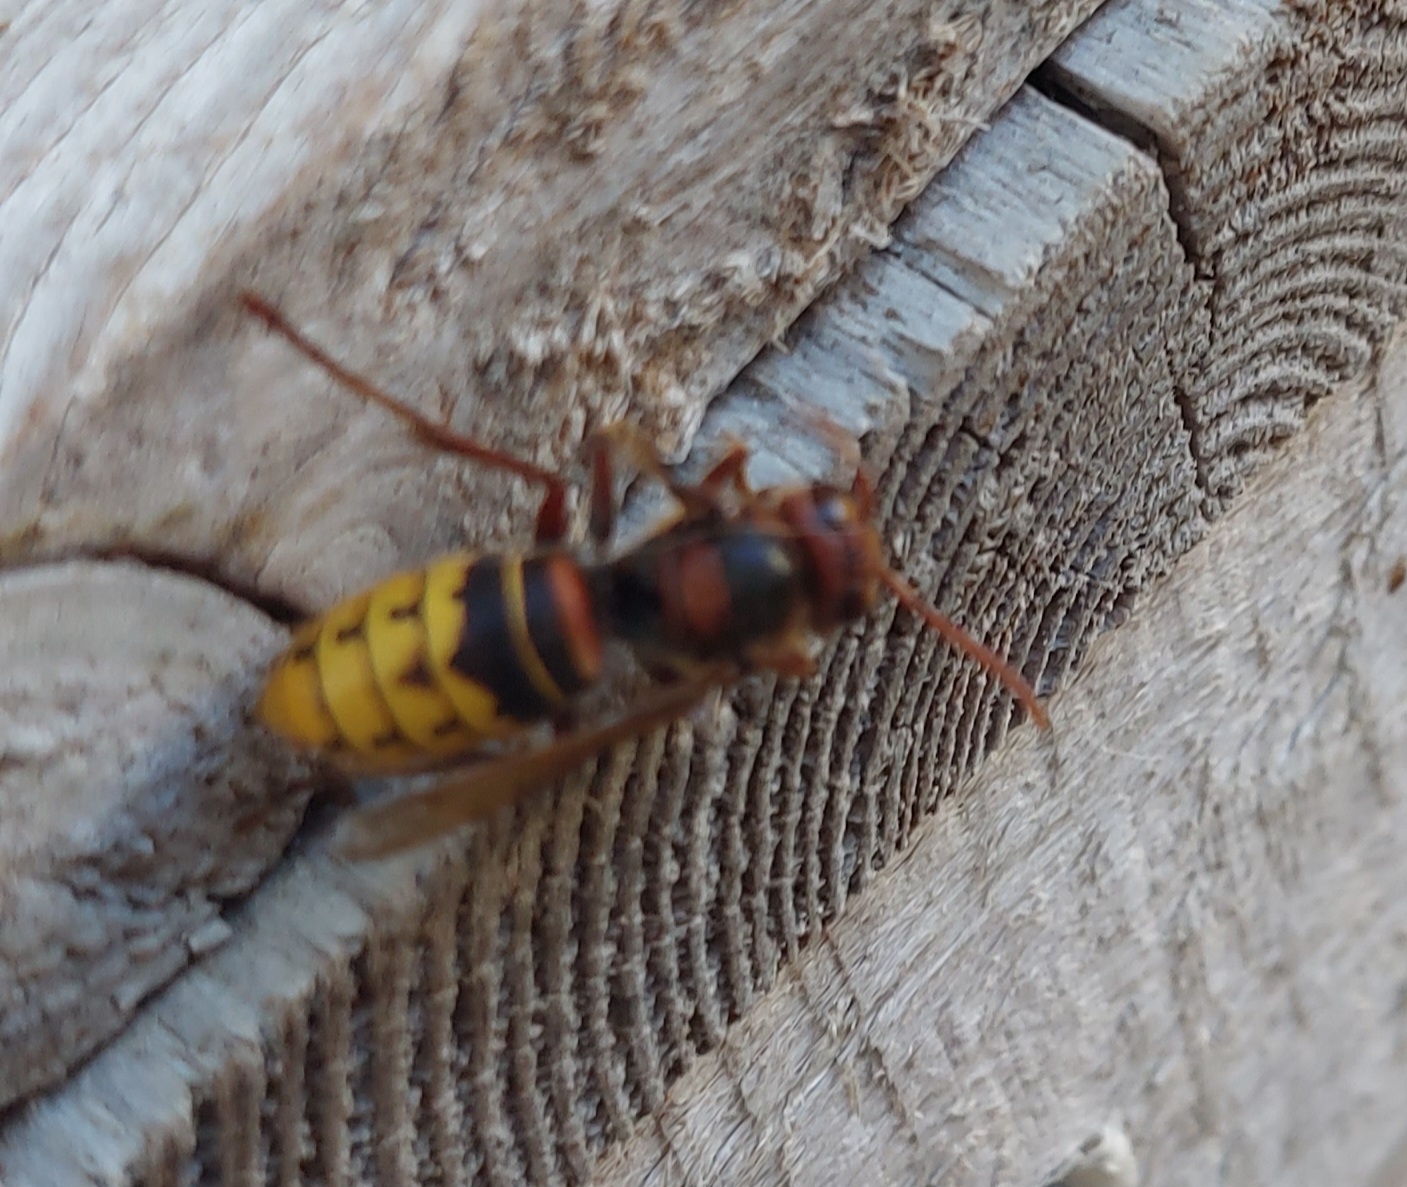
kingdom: Animalia
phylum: Arthropoda
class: Insecta
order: Hymenoptera
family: Vespidae
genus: Vespa
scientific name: Vespa crabro
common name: Hornet
